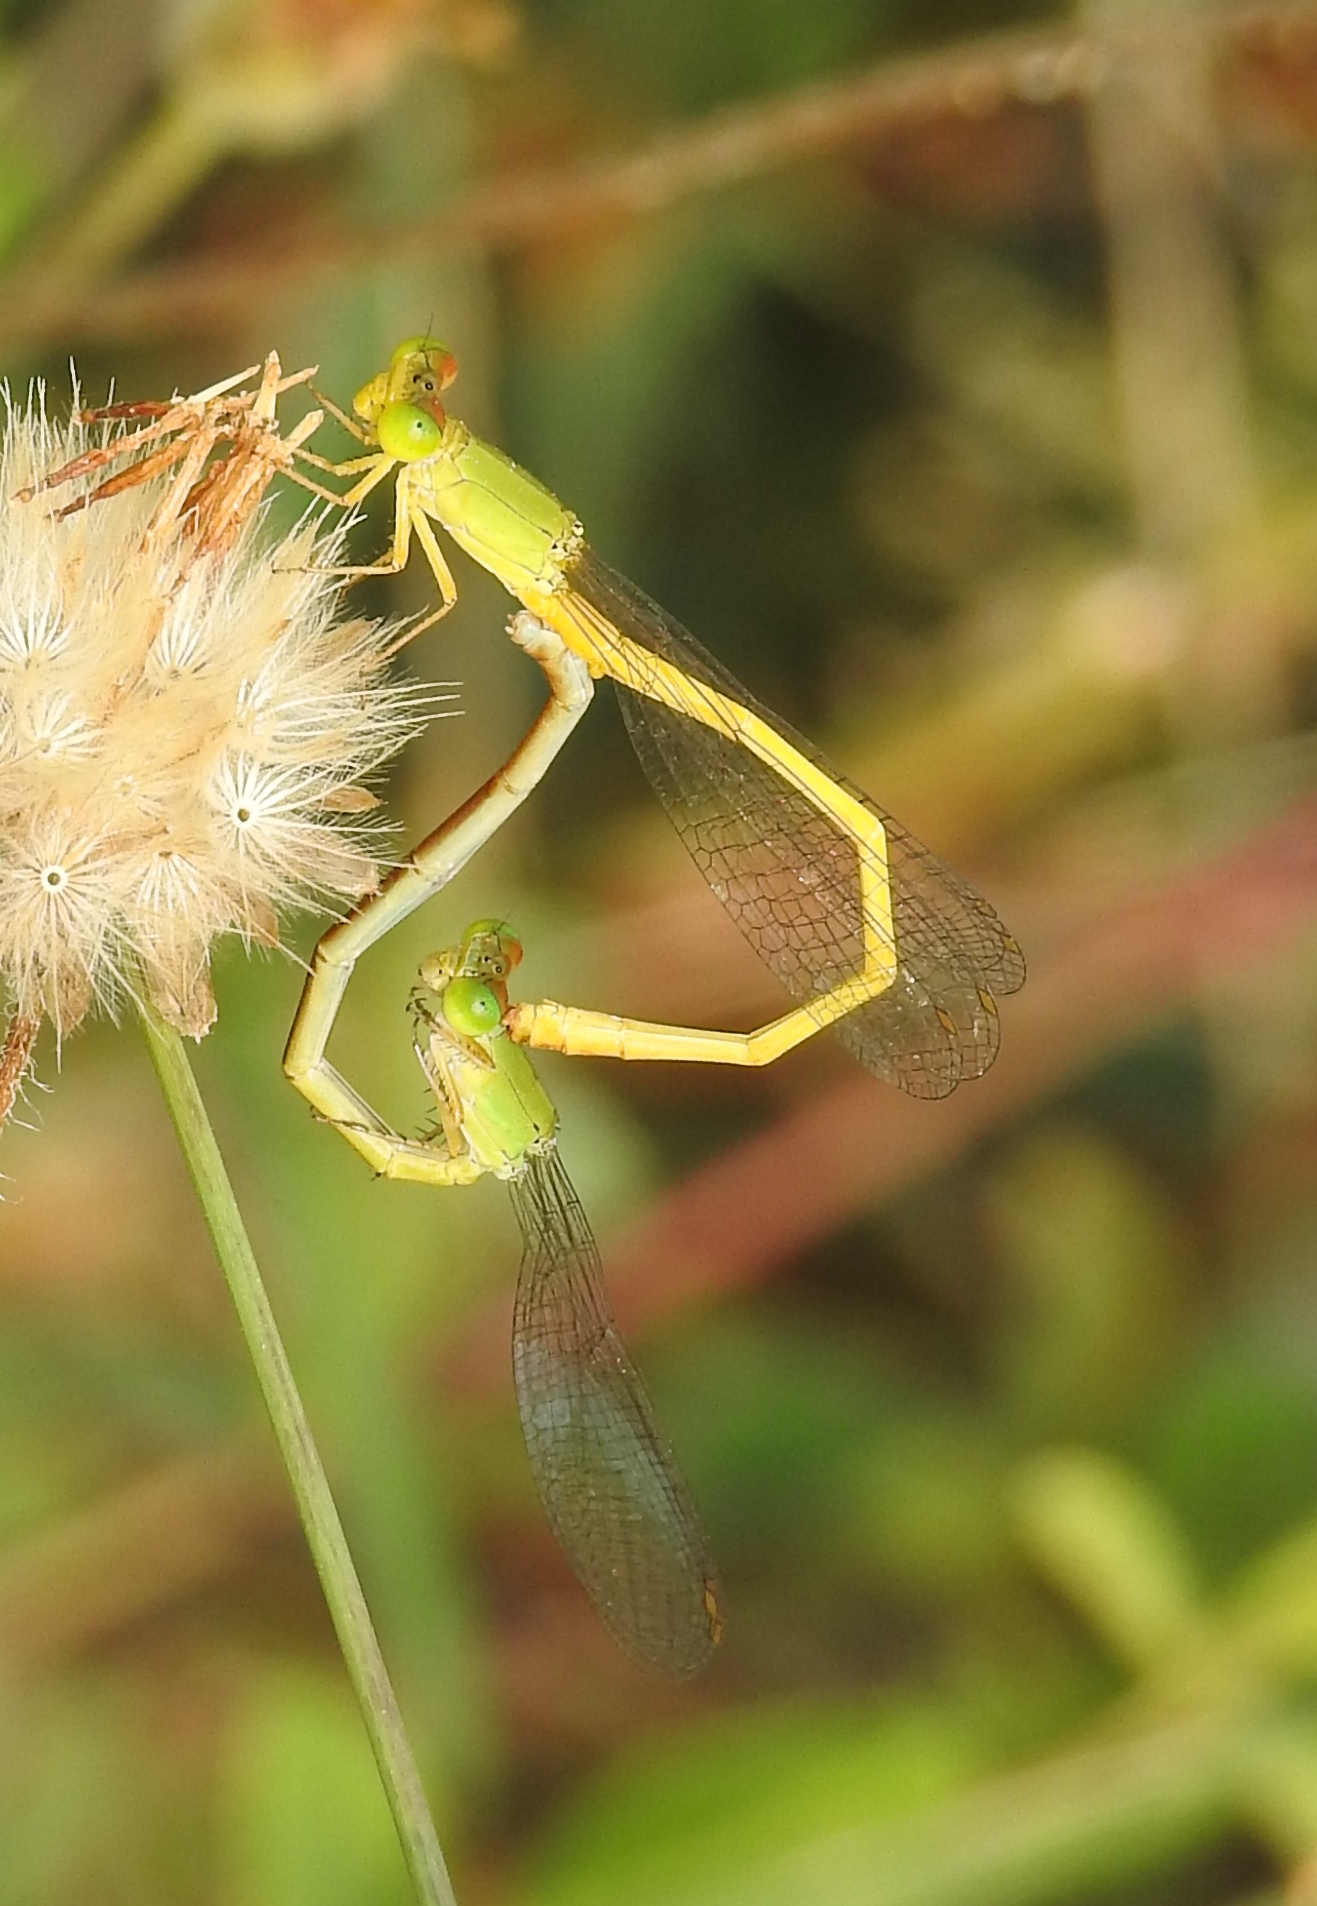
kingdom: Animalia
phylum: Arthropoda
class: Insecta
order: Odonata
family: Coenagrionidae
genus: Ceriagrion
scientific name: Ceriagrion coromandelianum
